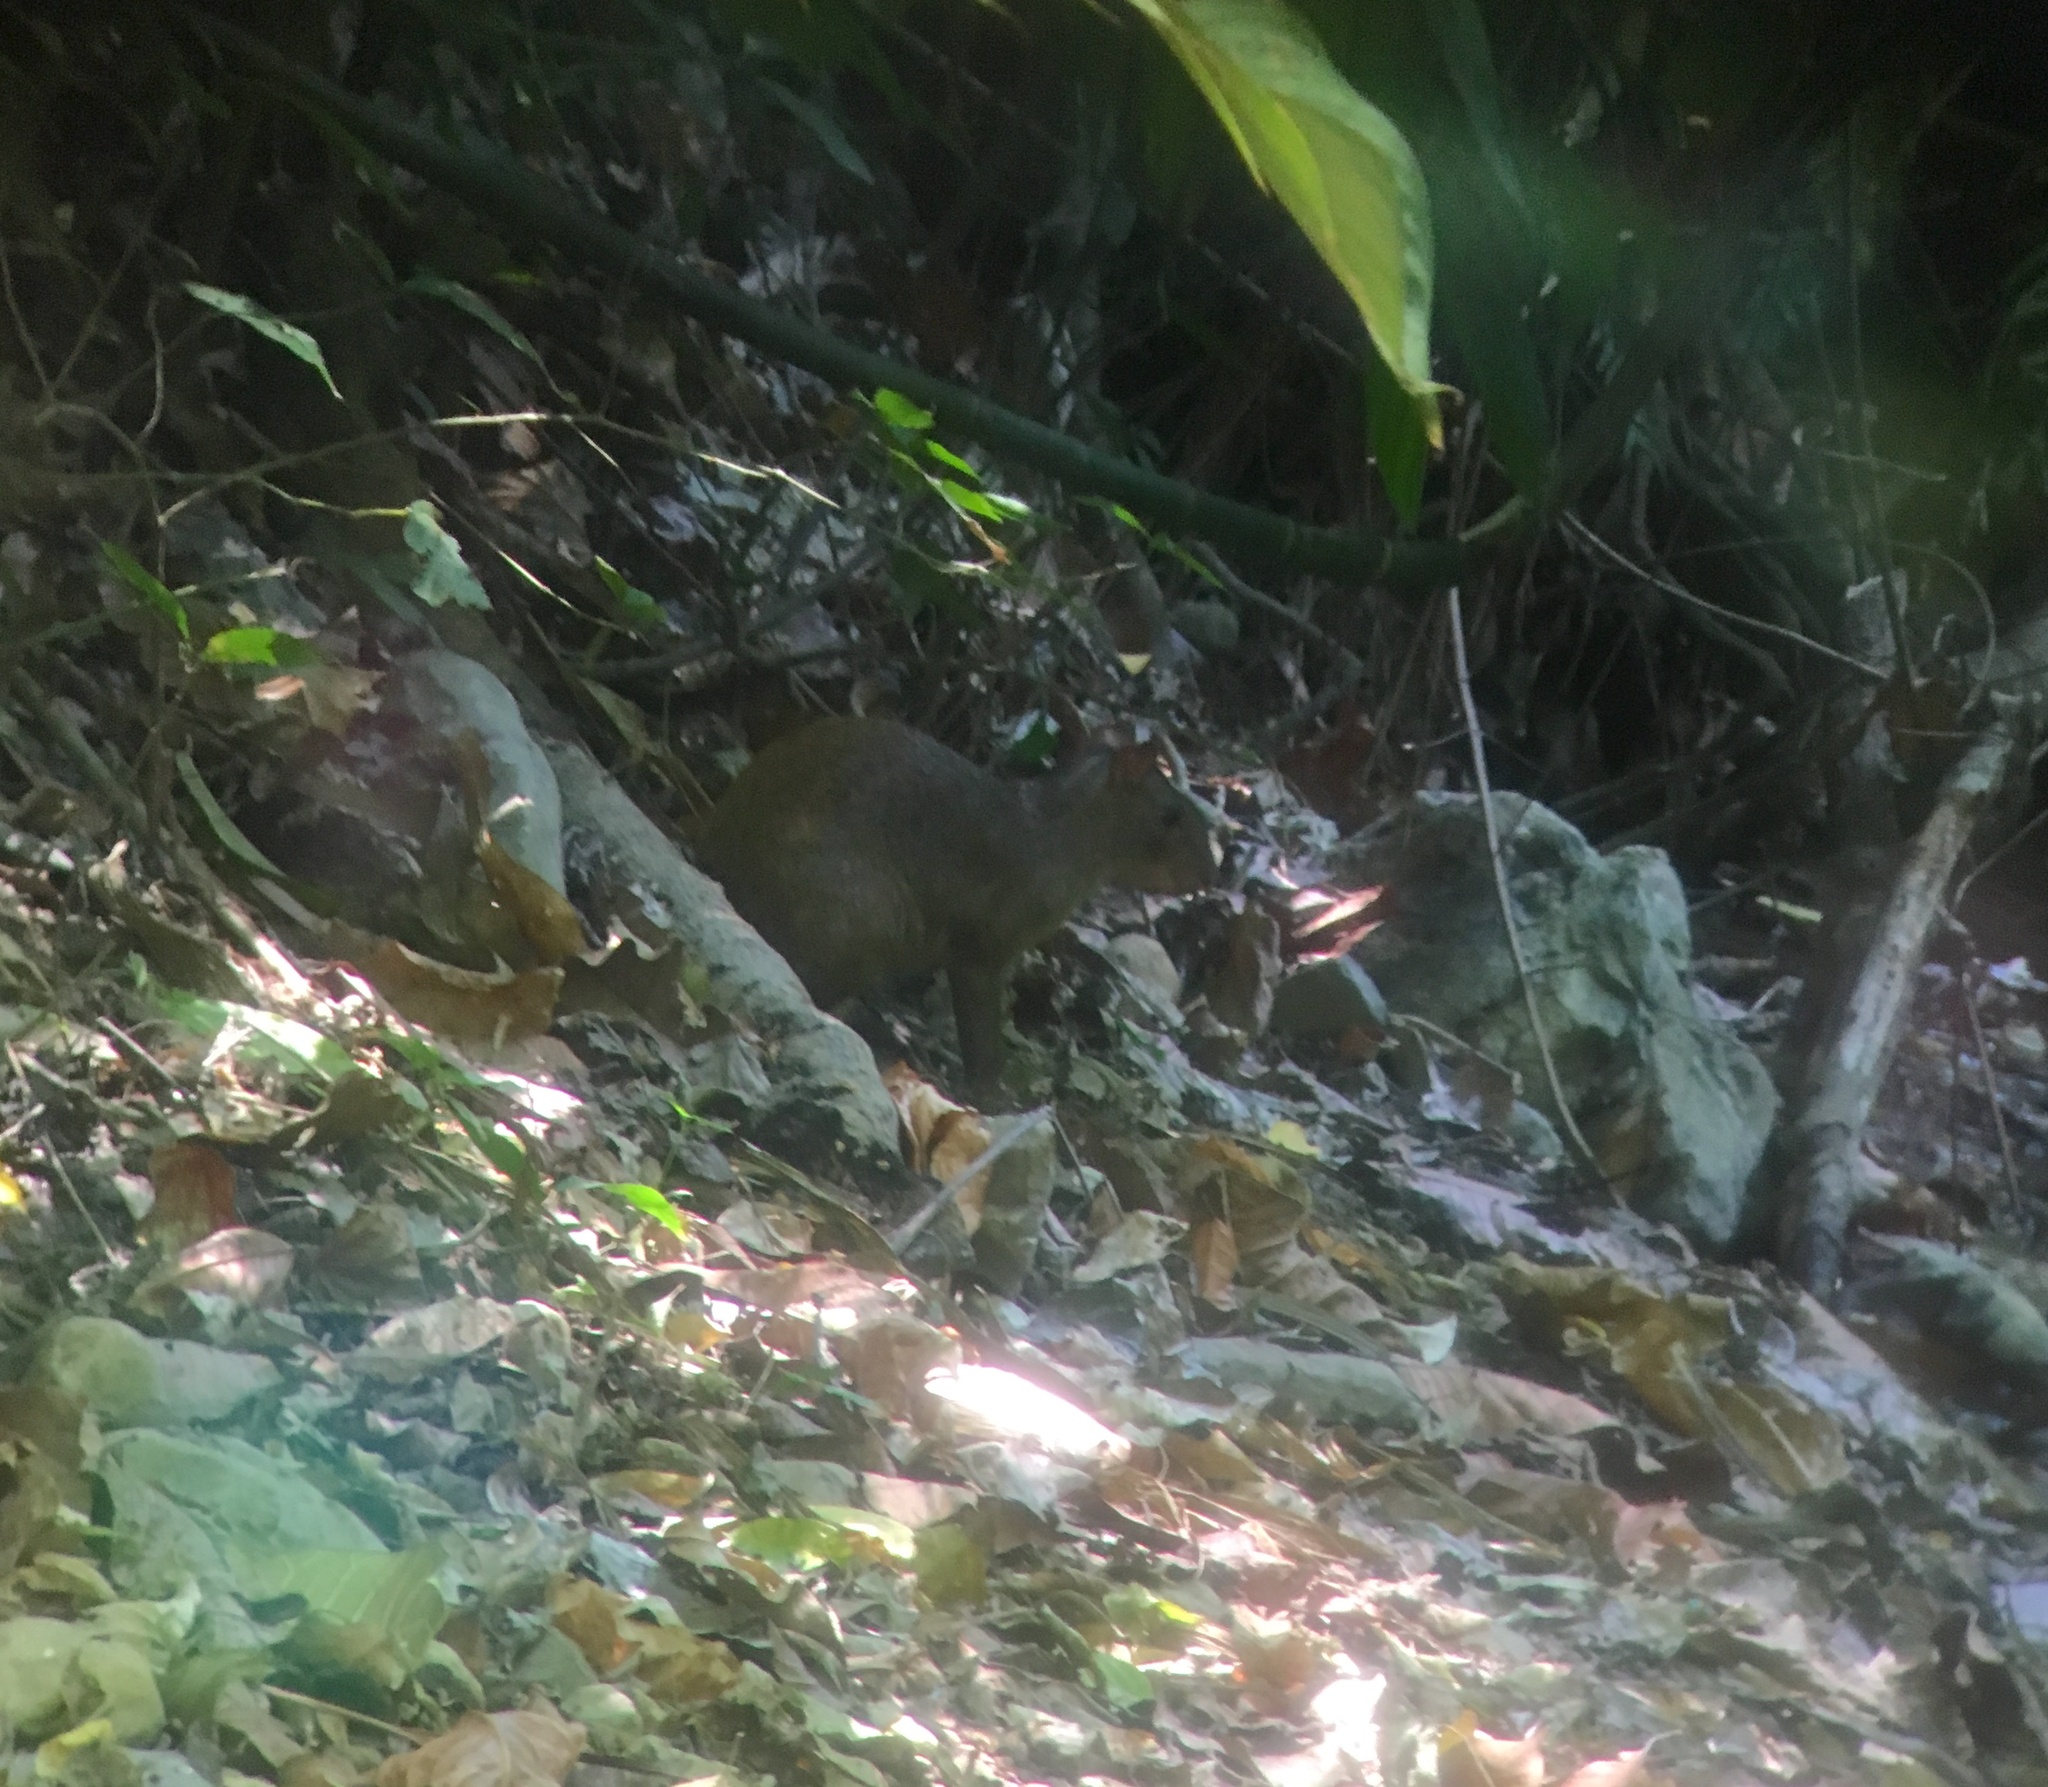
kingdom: Animalia
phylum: Chordata
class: Mammalia
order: Rodentia
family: Dasyproctidae
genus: Dasyprocta
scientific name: Dasyprocta punctata
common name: Central american agouti
